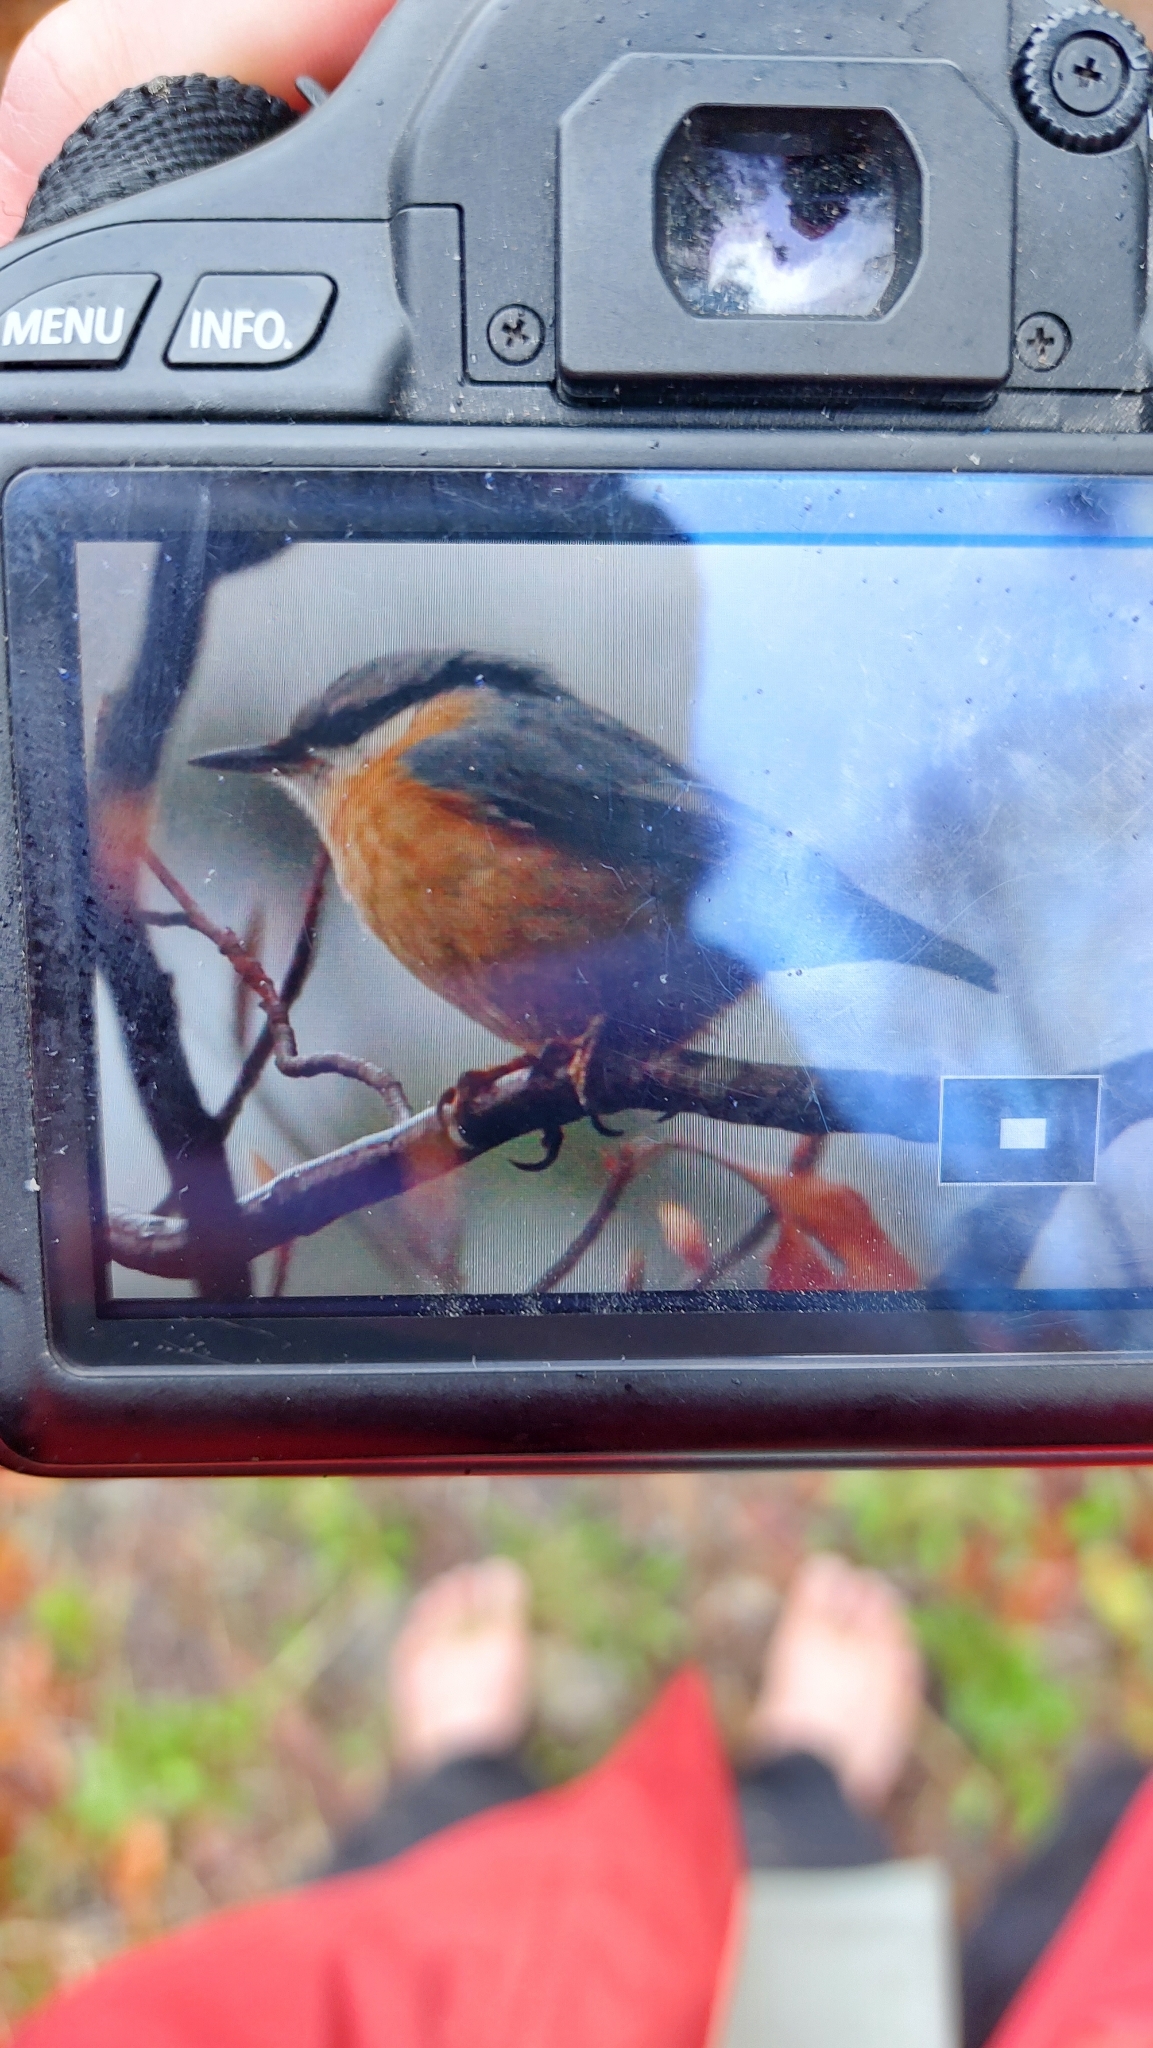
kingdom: Animalia
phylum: Chordata
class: Aves
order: Passeriformes
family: Sittidae
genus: Sitta
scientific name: Sitta europaea
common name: Eurasian nuthatch
